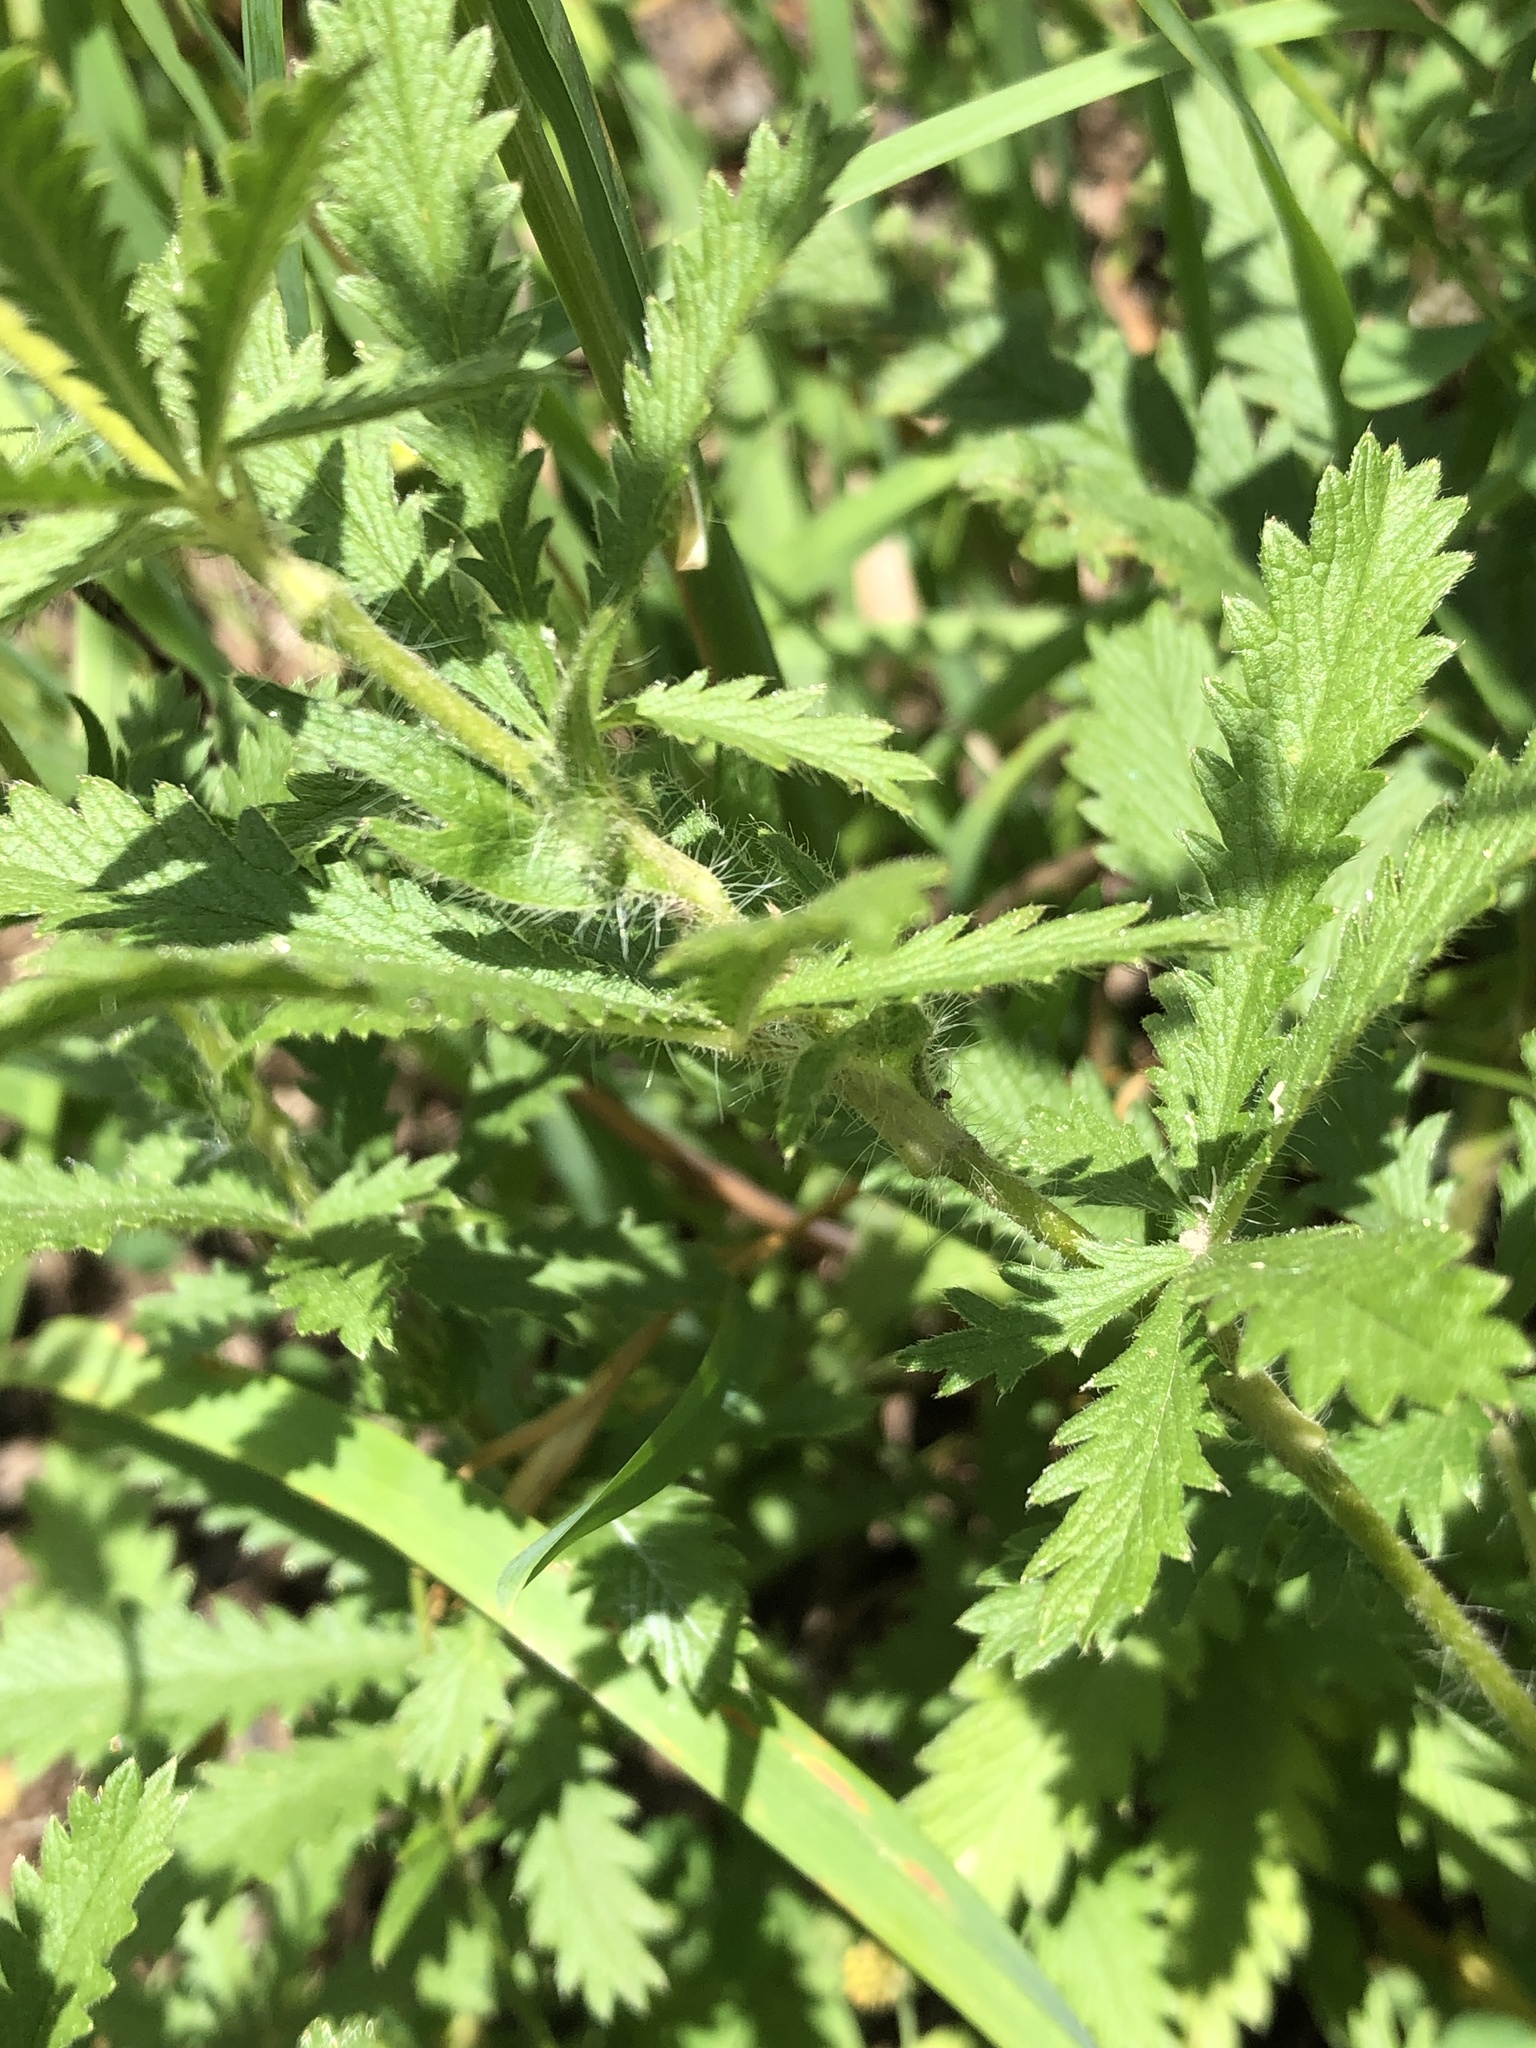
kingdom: Plantae
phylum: Tracheophyta
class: Magnoliopsida
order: Rosales
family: Rosaceae
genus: Potentilla
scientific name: Potentilla recta
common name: Sulphur cinquefoil
